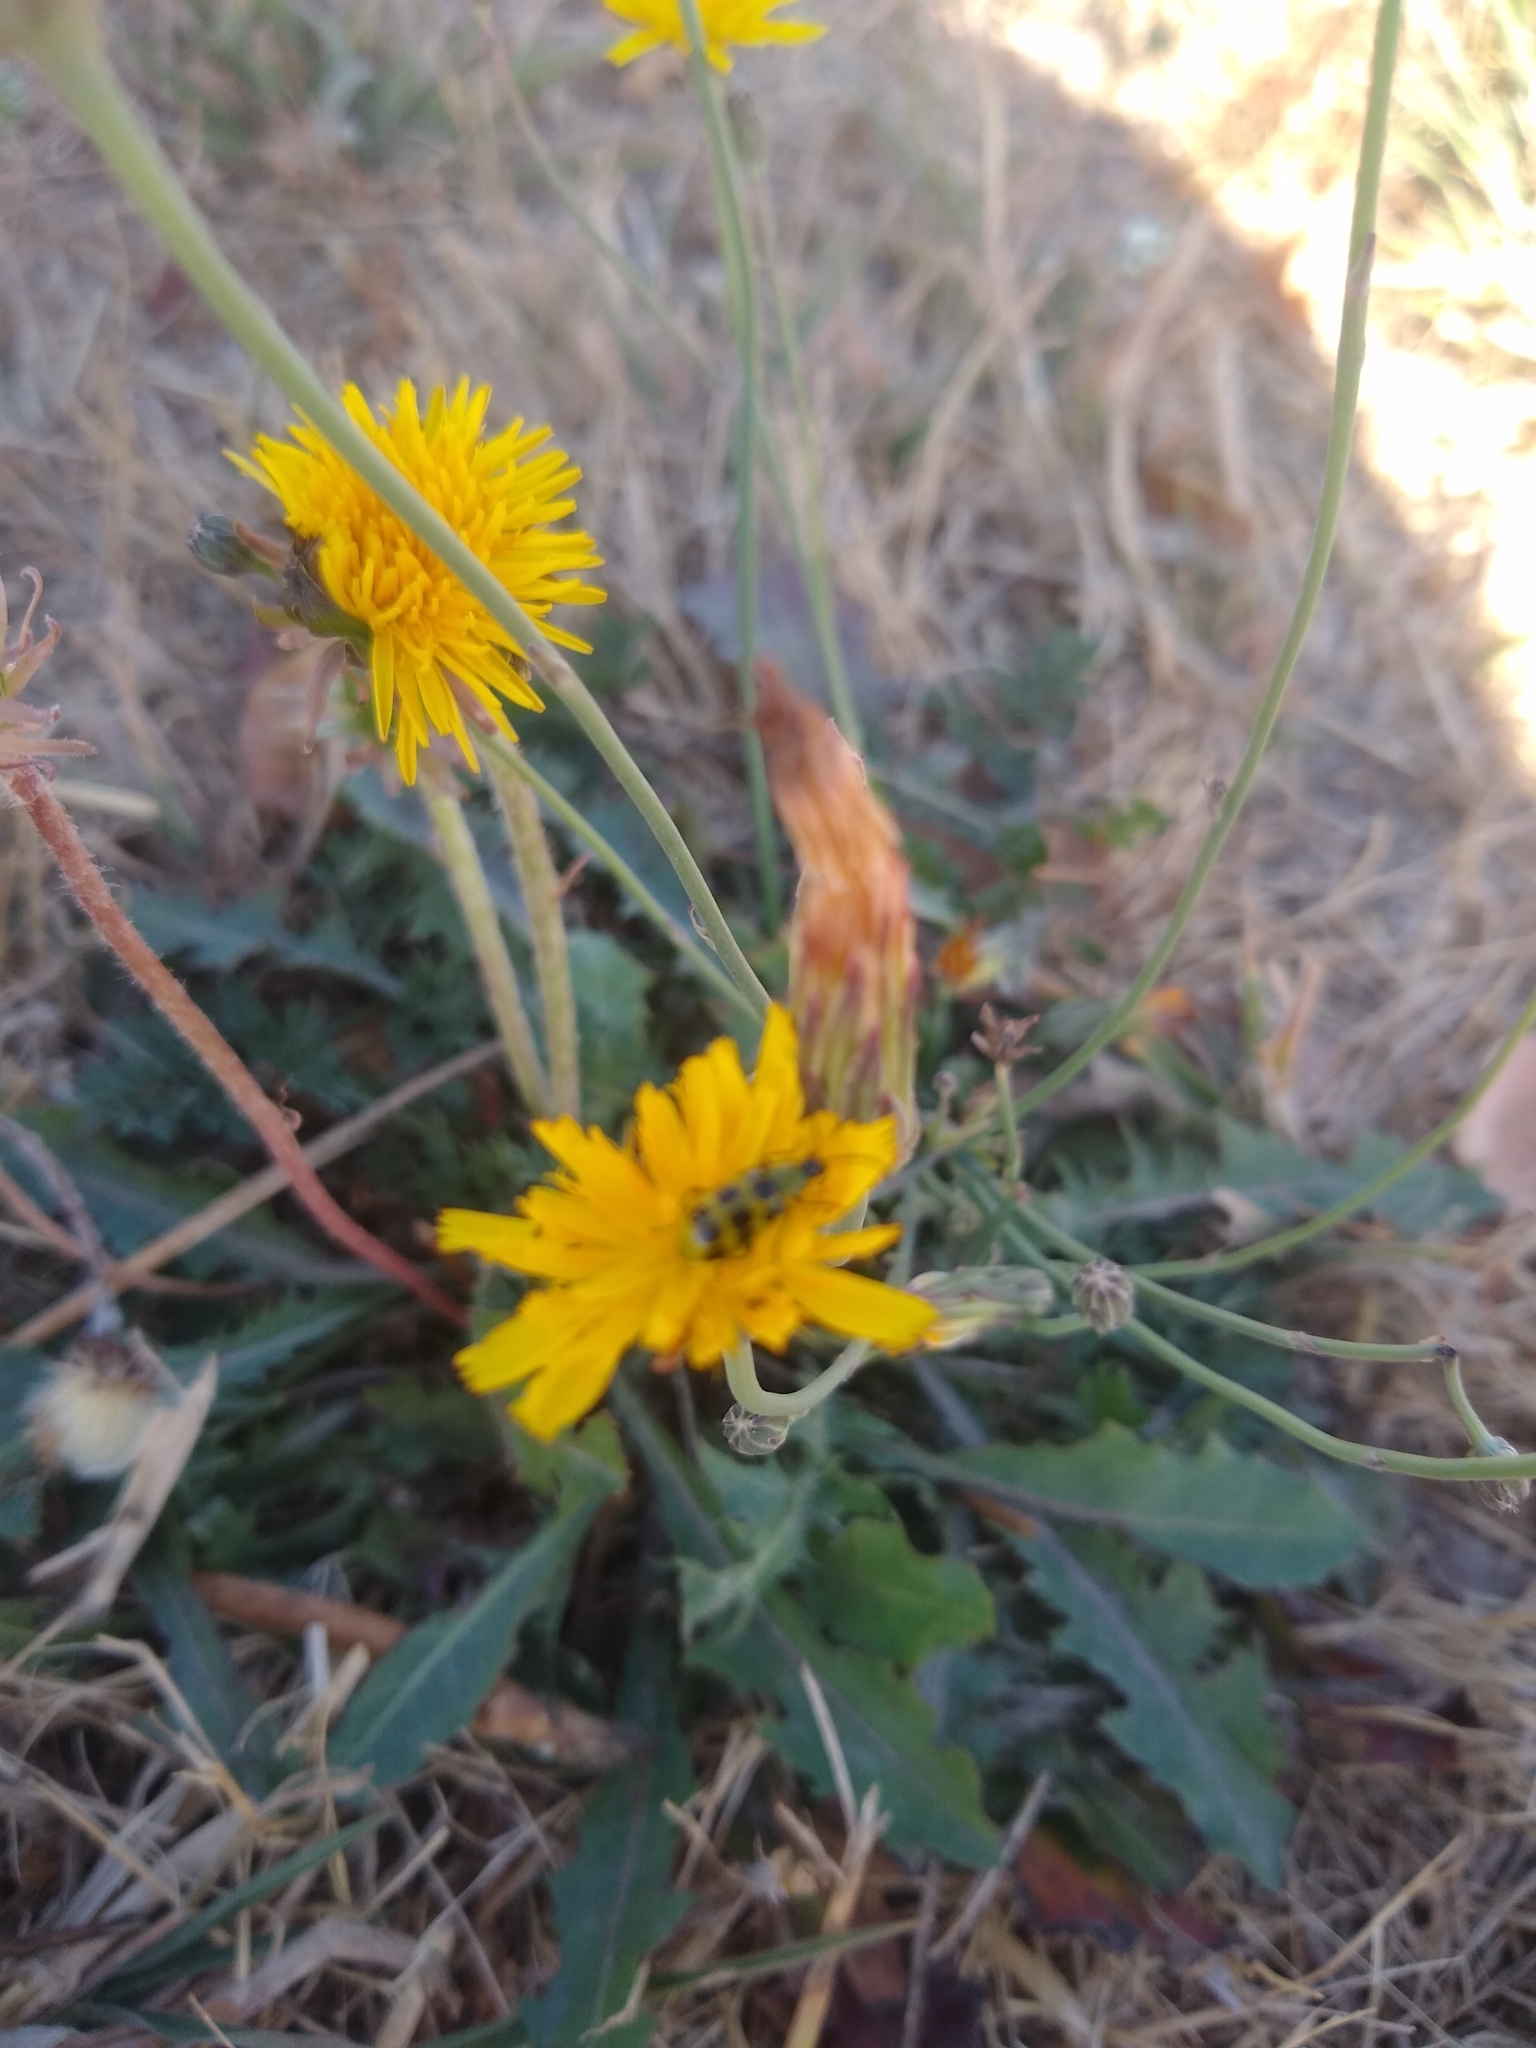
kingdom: Animalia
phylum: Arthropoda
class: Insecta
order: Coleoptera
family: Chrysomelidae
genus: Diabrotica
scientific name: Diabrotica undecimpunctata
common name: Spotted cucumber beetle
